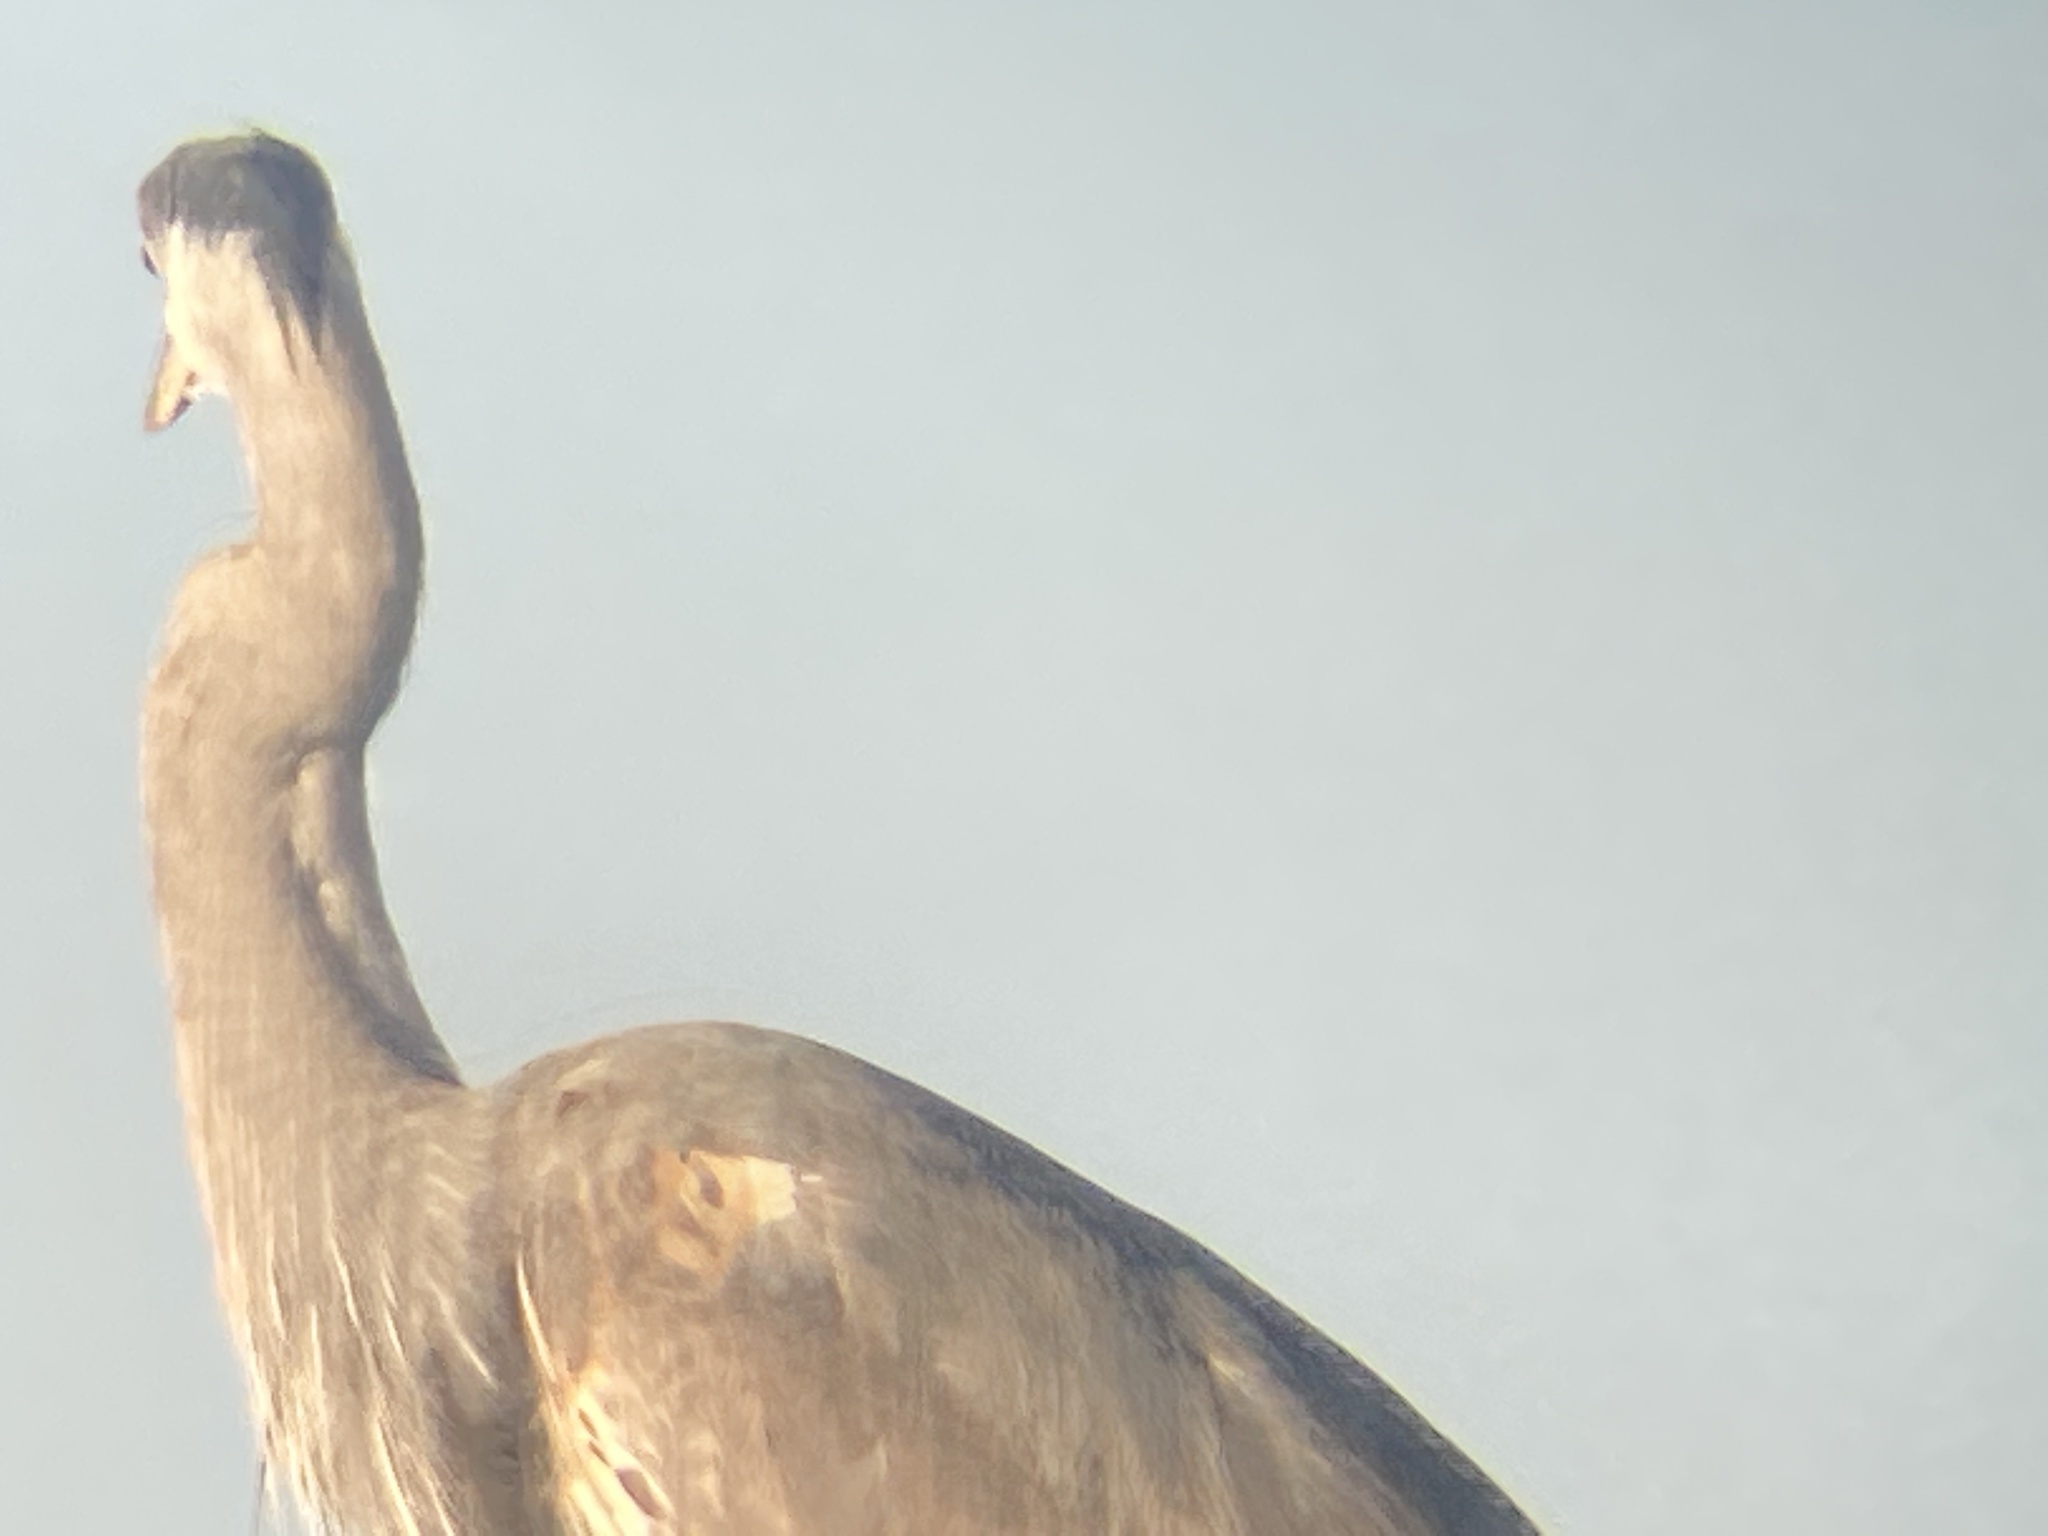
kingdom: Animalia
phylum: Chordata
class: Aves
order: Pelecaniformes
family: Ardeidae
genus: Ardea
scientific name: Ardea herodias
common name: Great blue heron
